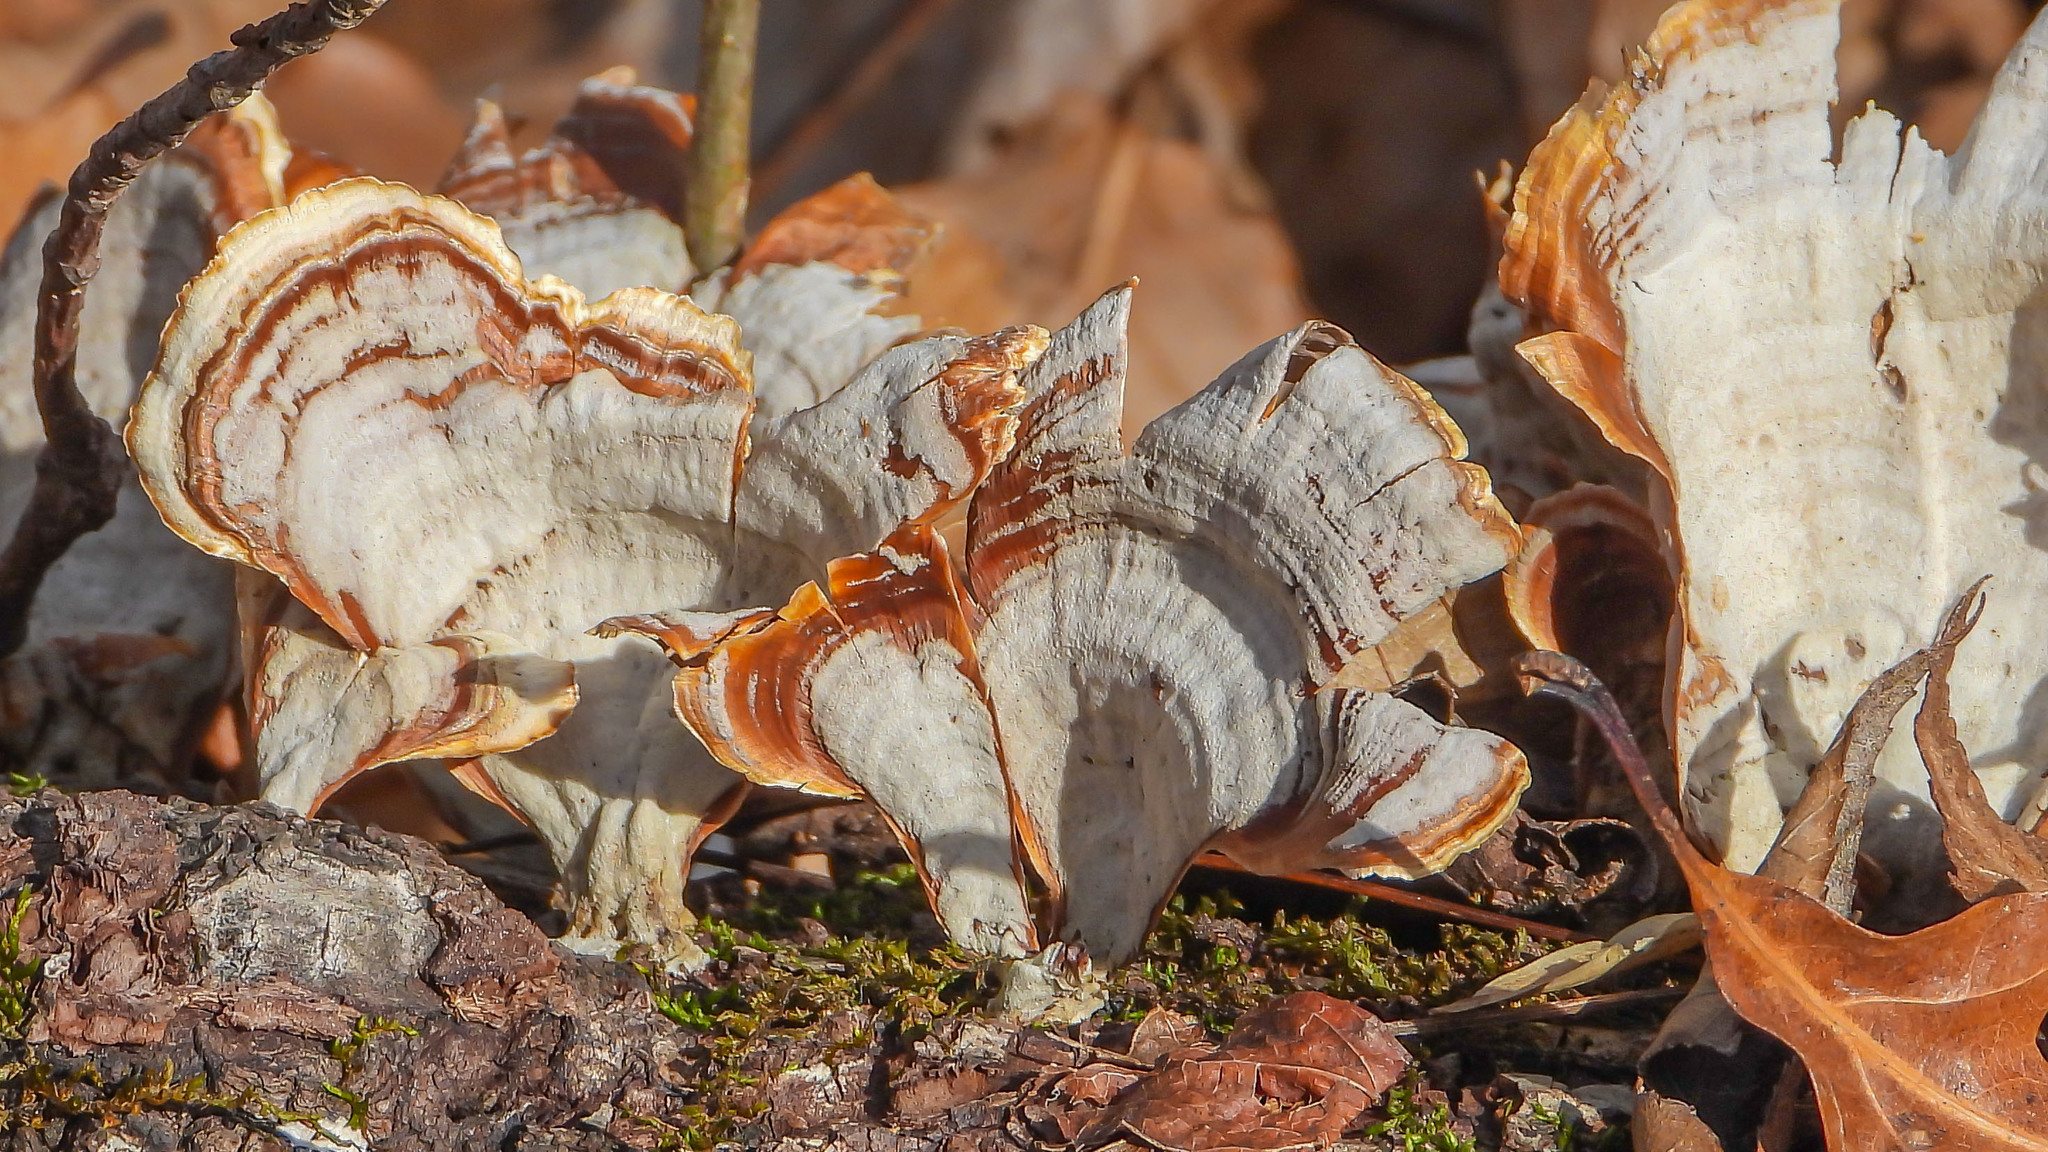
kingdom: Fungi
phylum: Basidiomycota
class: Agaricomycetes
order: Russulales
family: Stereaceae
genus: Stereum
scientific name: Stereum ostrea
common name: False turkeytail
